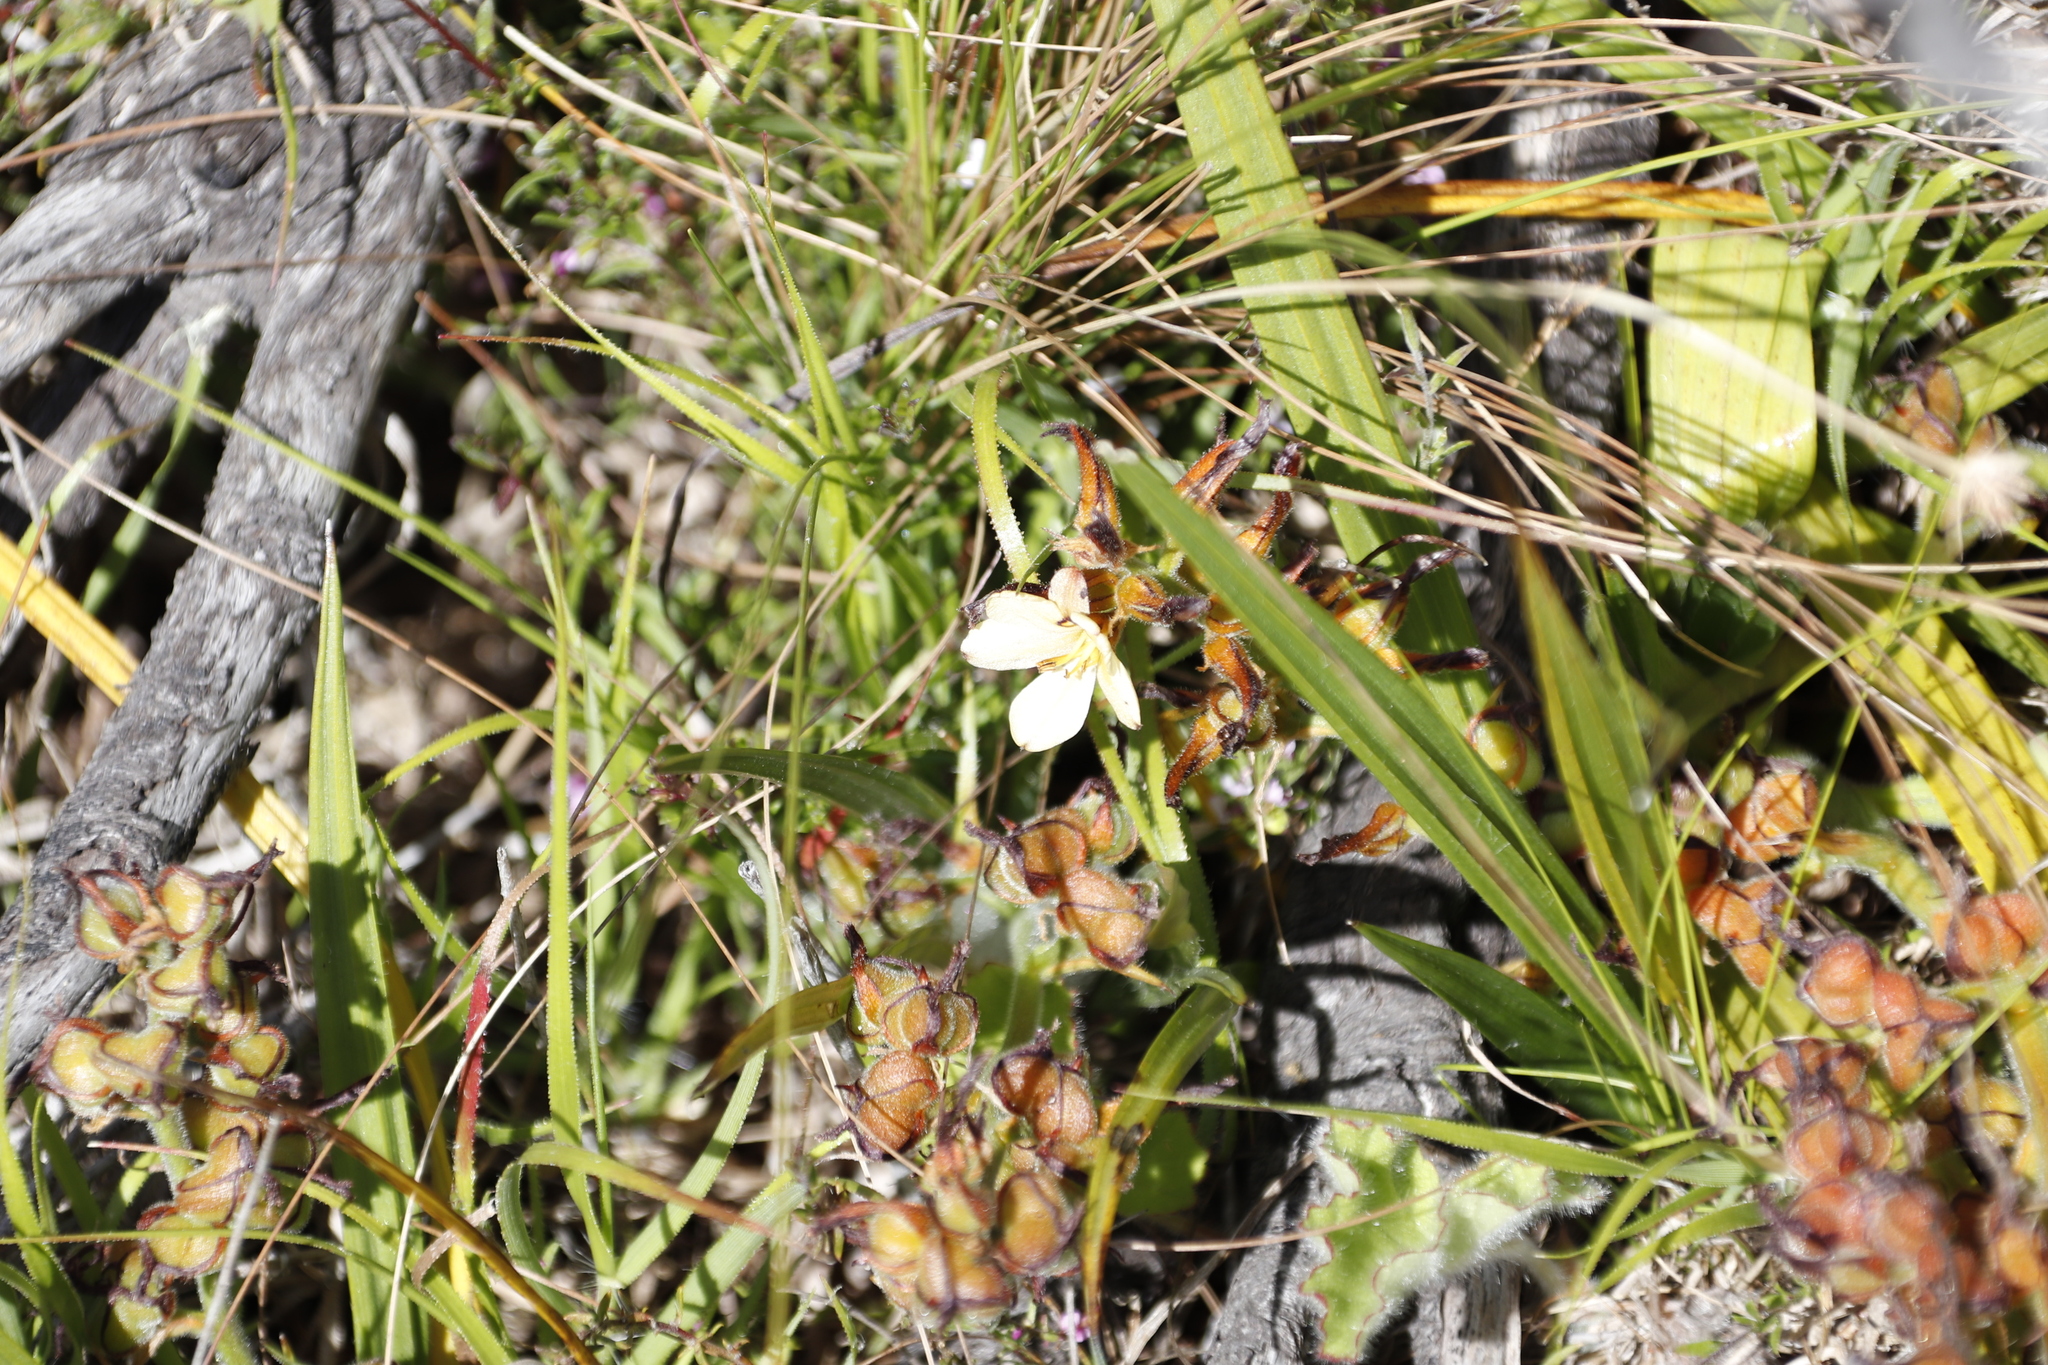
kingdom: Plantae
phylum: Tracheophyta
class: Liliopsida
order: Commelinales
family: Haemodoraceae
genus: Wachendorfia
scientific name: Wachendorfia thyrsiflora
